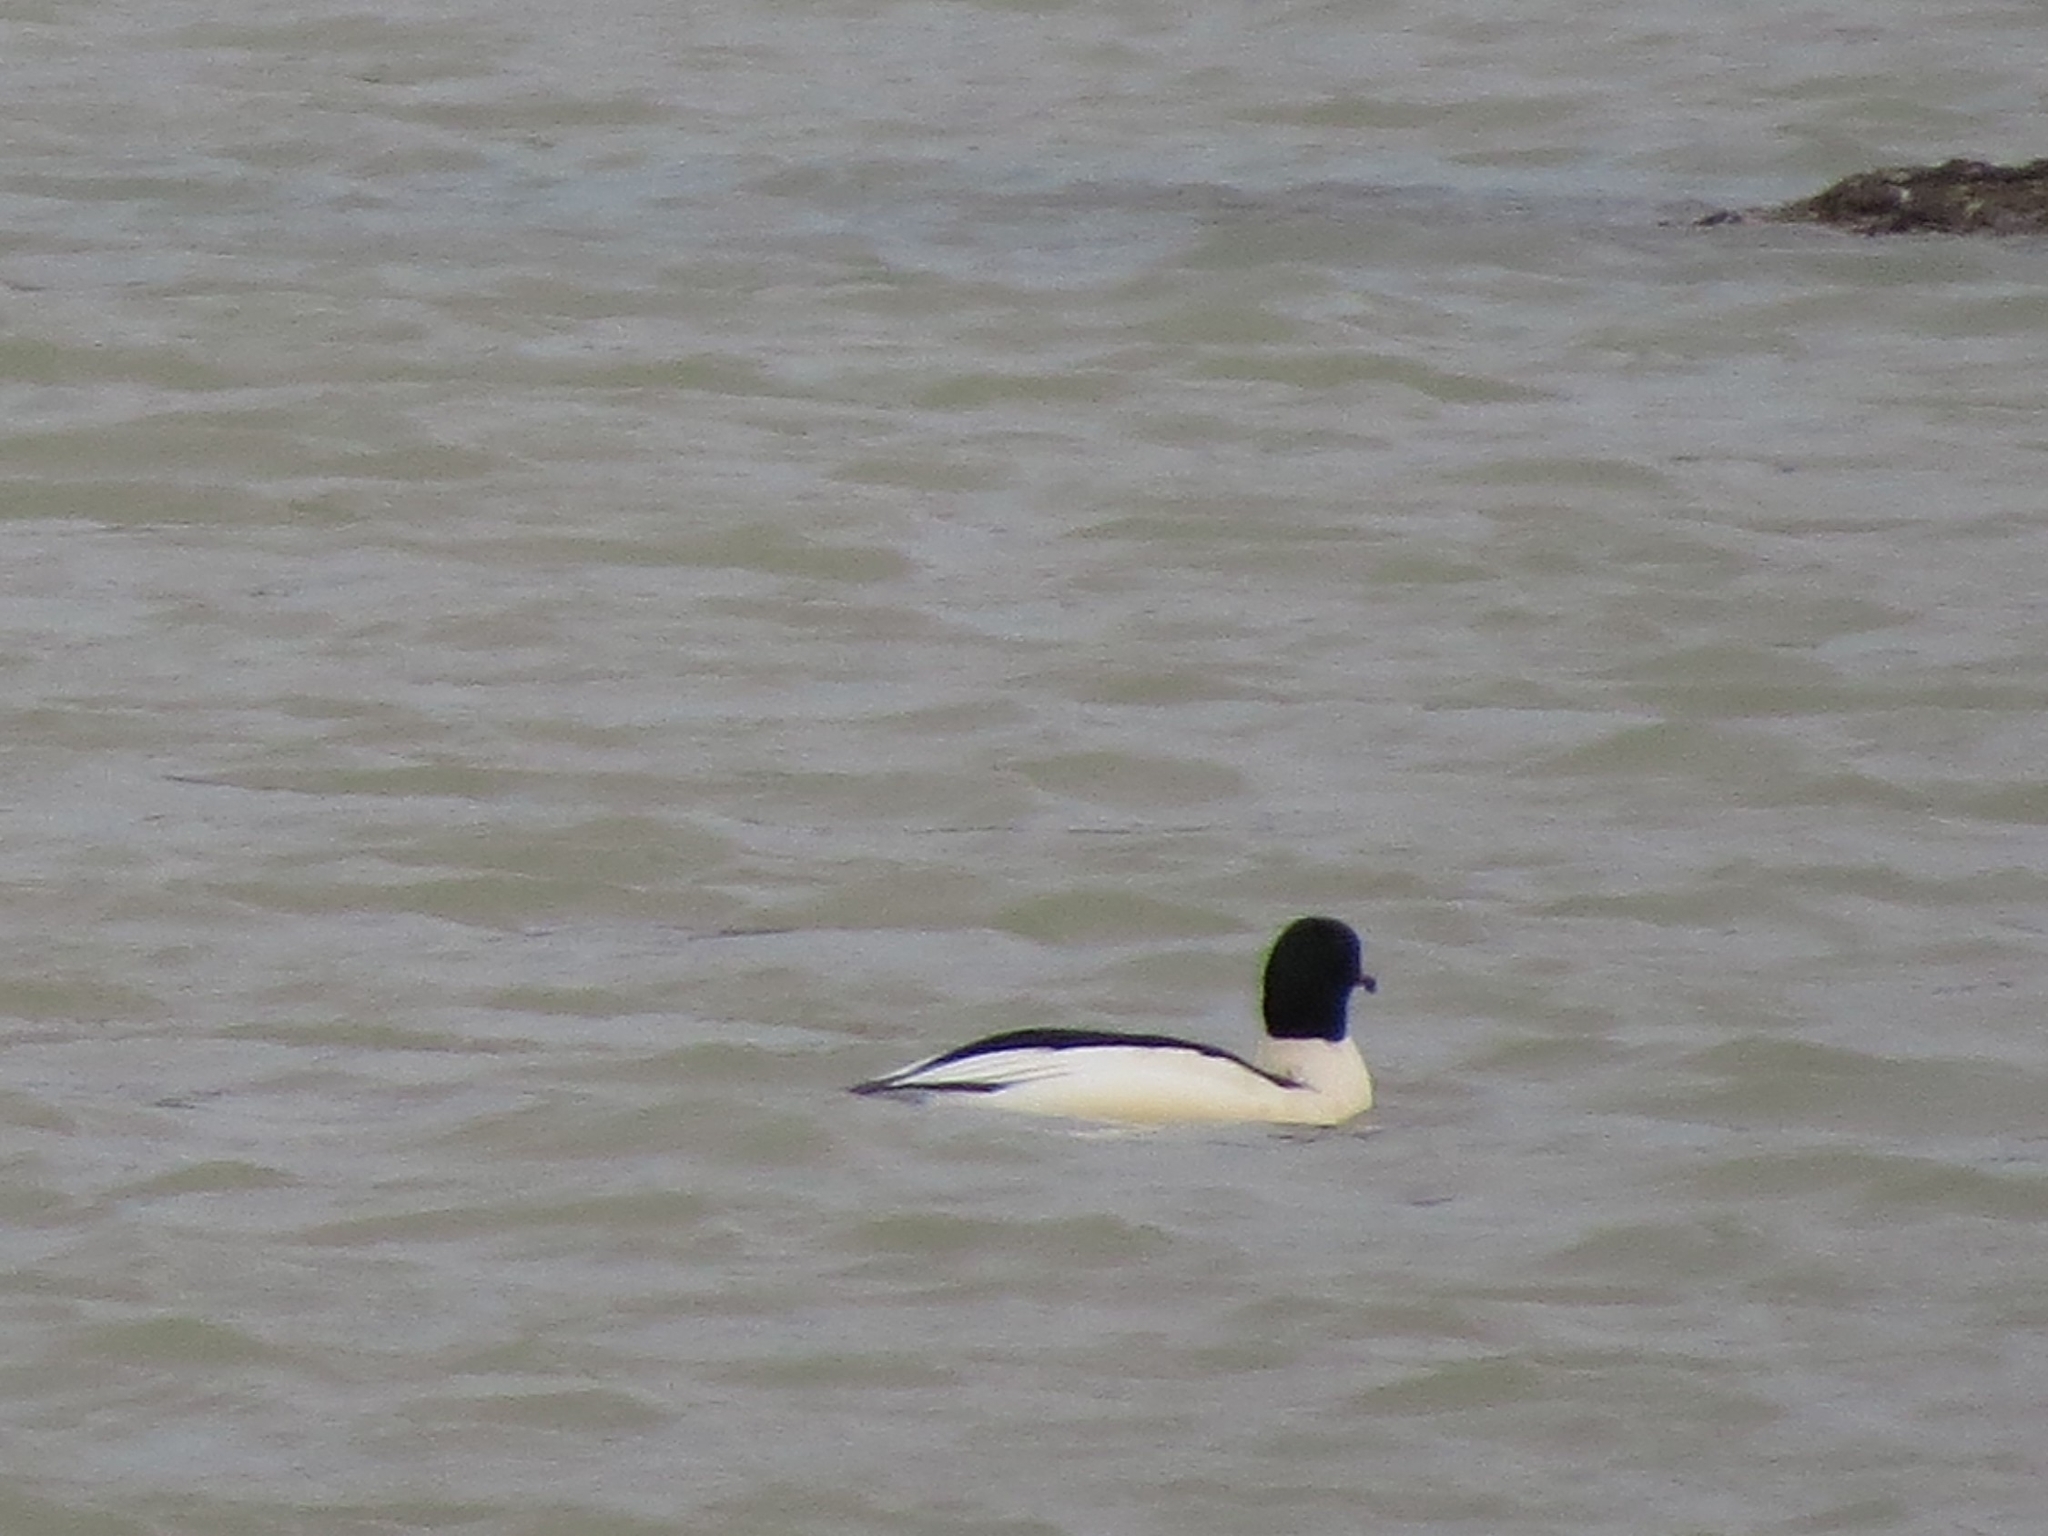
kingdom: Animalia
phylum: Chordata
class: Aves
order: Anseriformes
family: Anatidae
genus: Mergus
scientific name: Mergus merganser
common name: Common merganser
